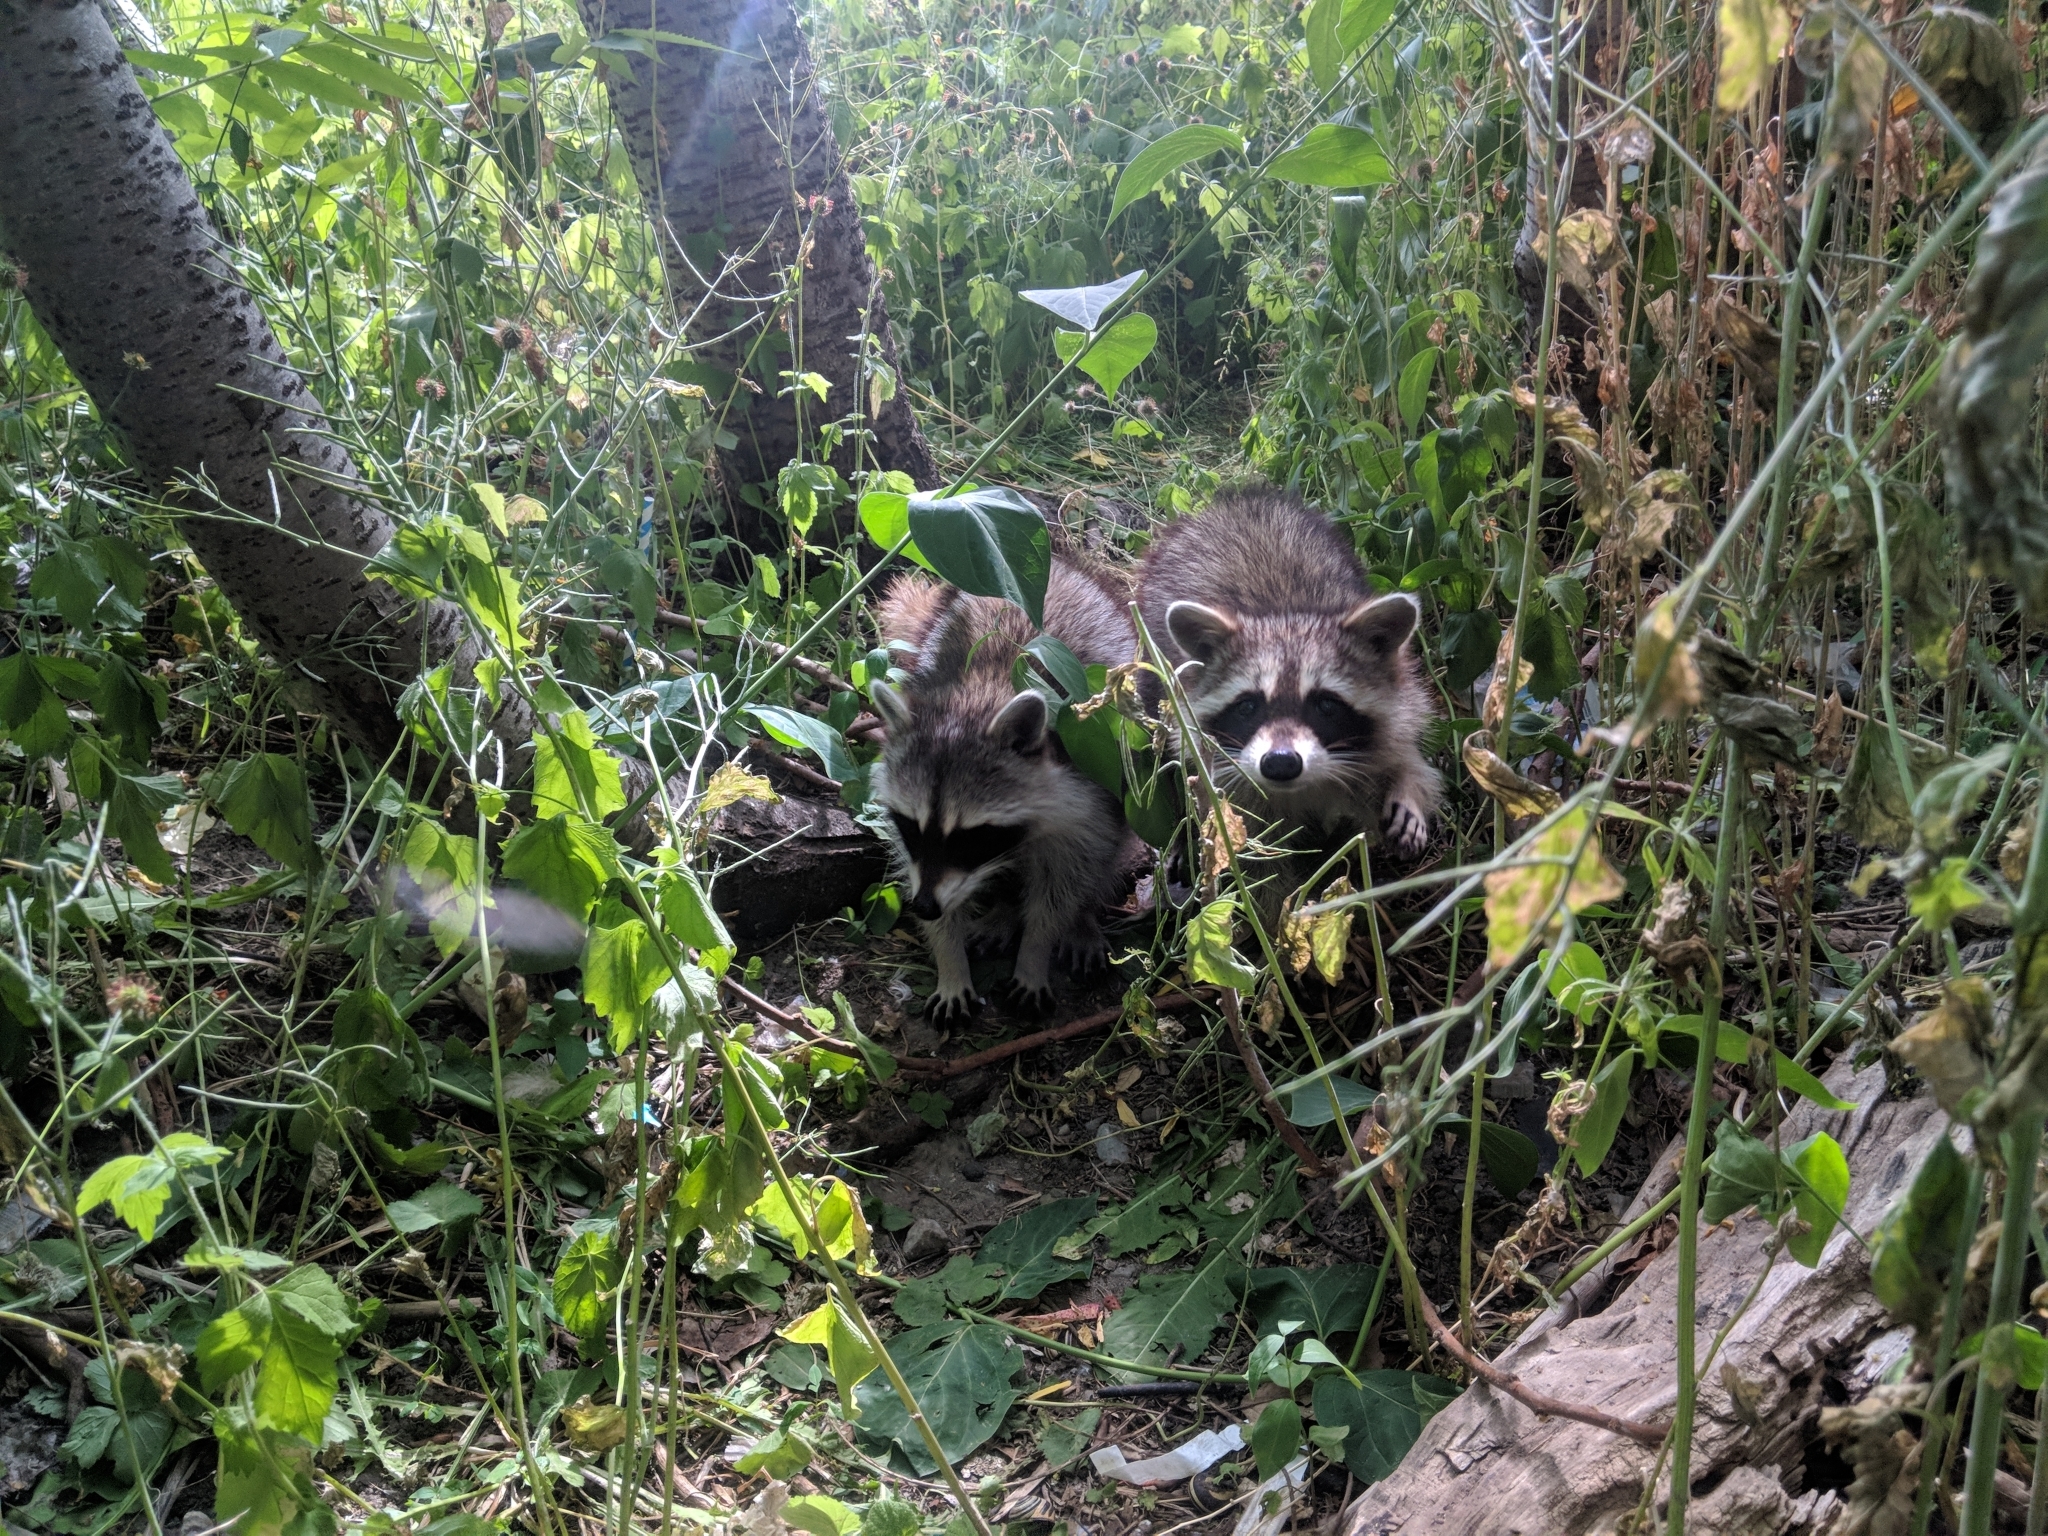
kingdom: Animalia
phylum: Chordata
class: Mammalia
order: Carnivora
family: Procyonidae
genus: Procyon
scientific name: Procyon lotor
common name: Raccoon
